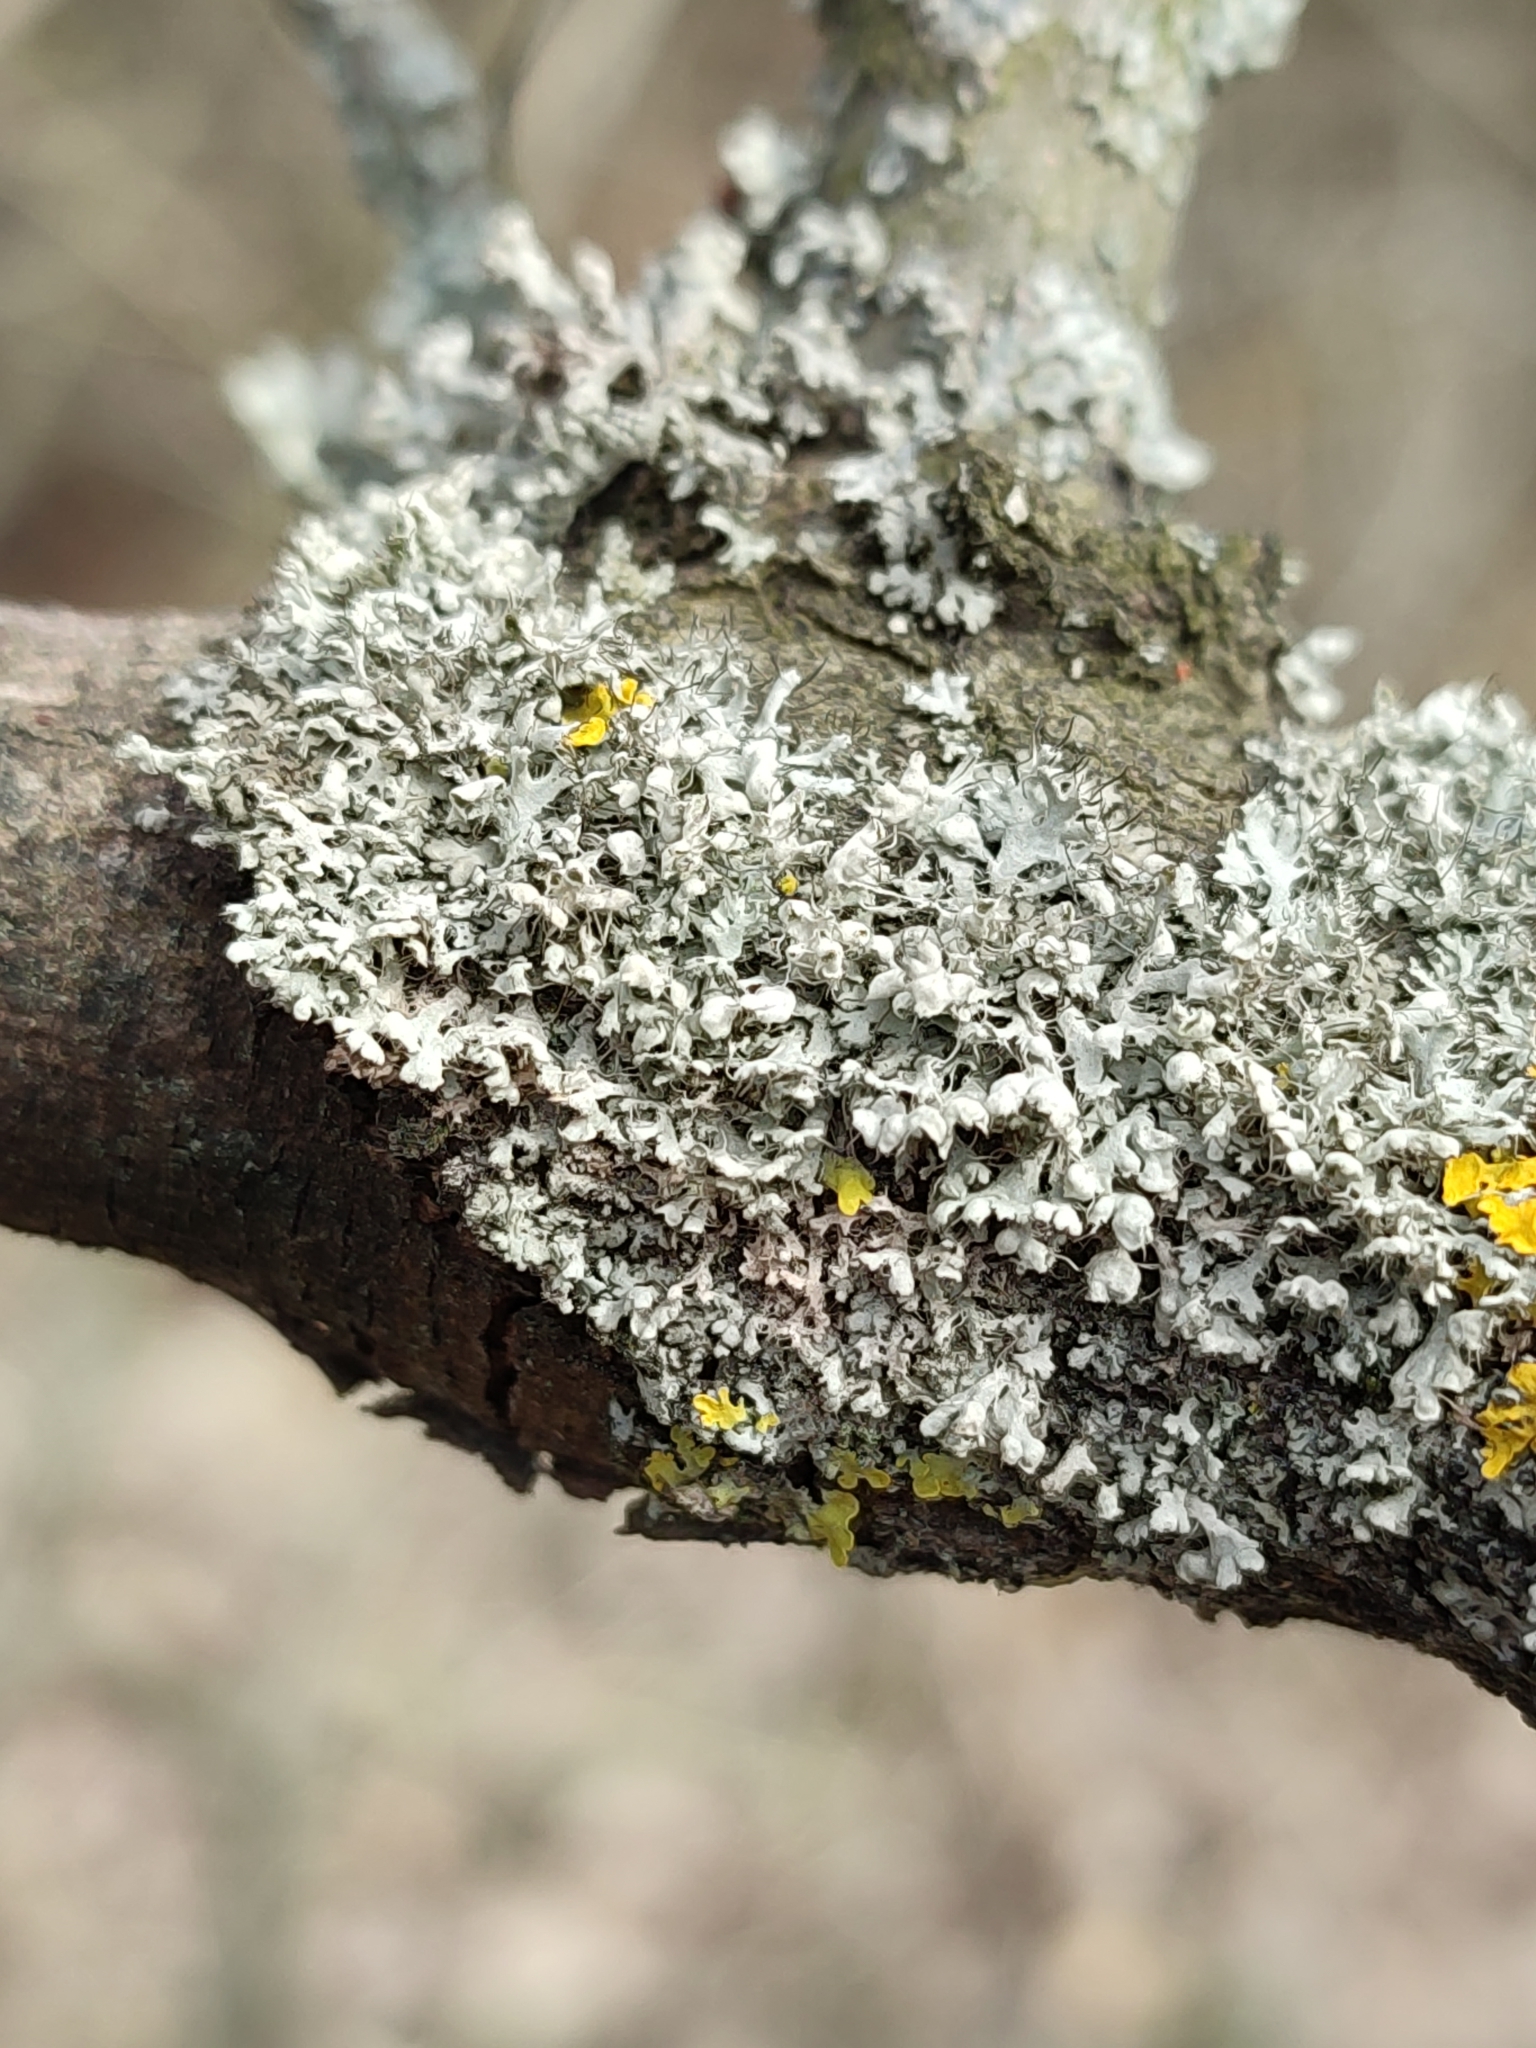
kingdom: Fungi
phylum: Ascomycota
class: Lecanoromycetes
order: Caliciales
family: Physciaceae
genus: Physcia
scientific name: Physcia adscendens
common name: Hooded rosette lichen
